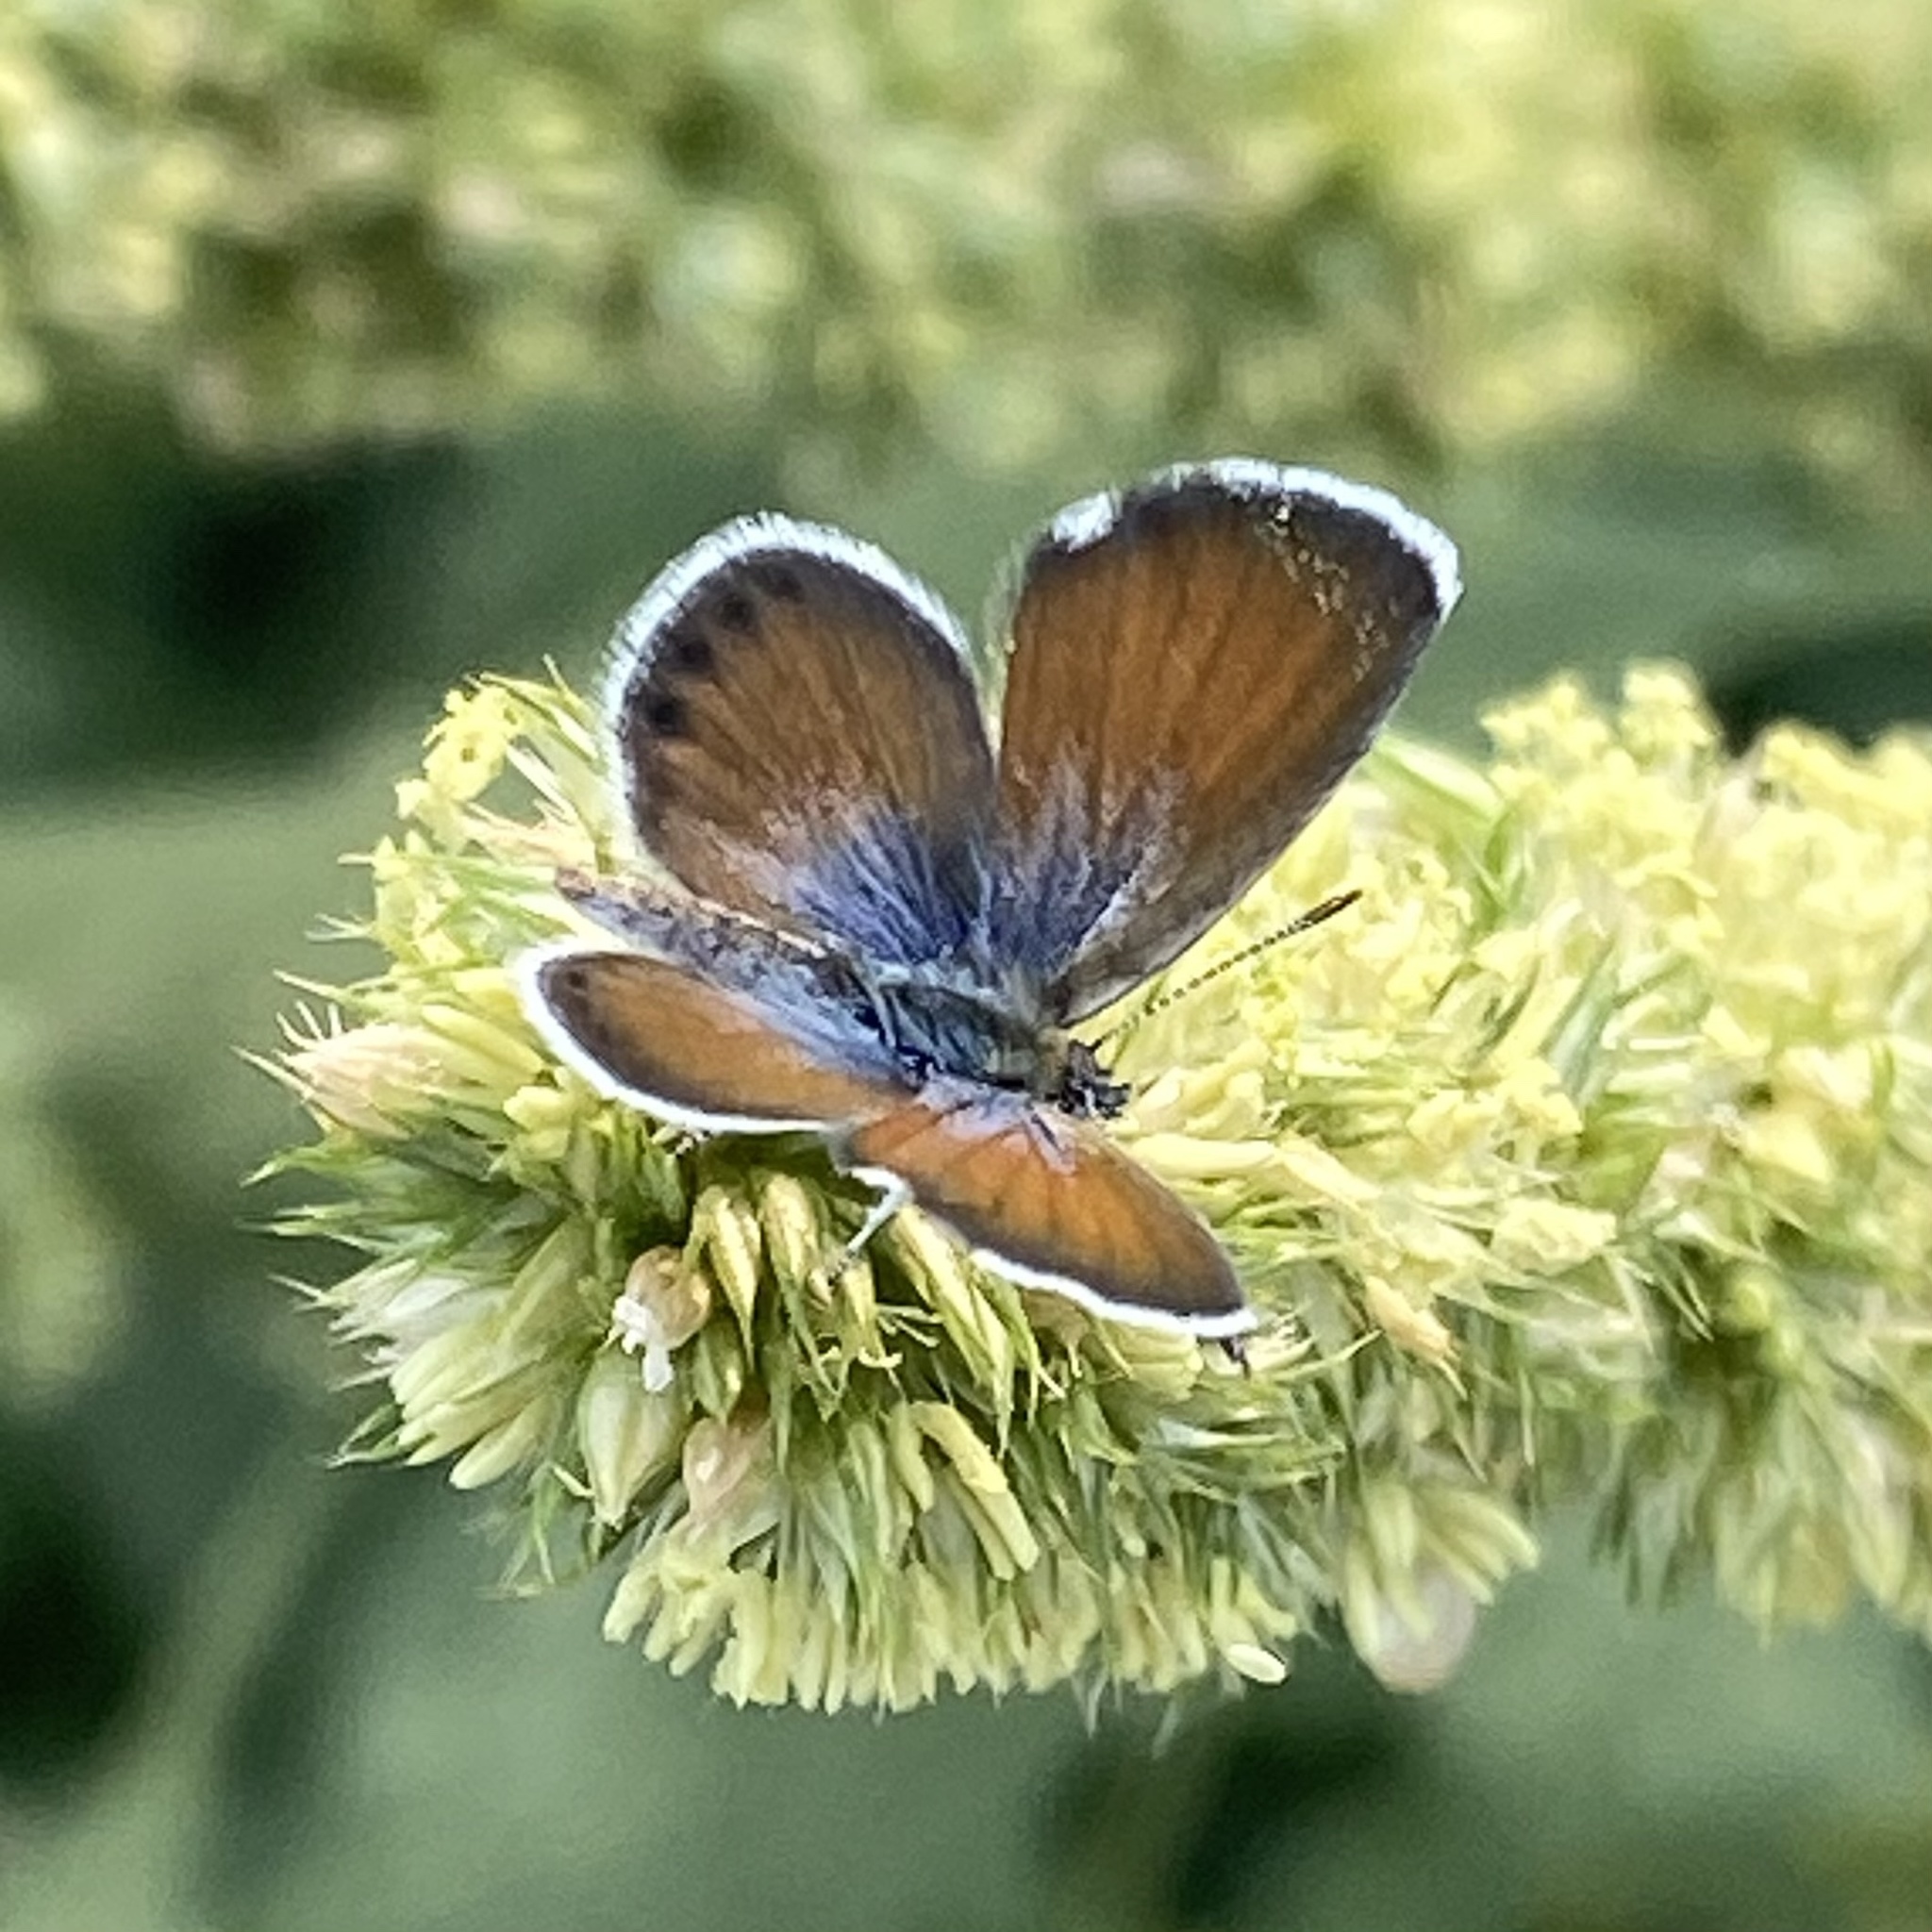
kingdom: Animalia
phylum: Arthropoda
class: Insecta
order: Lepidoptera
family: Lycaenidae
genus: Brephidium
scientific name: Brephidium exilis
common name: Pygmy blue
